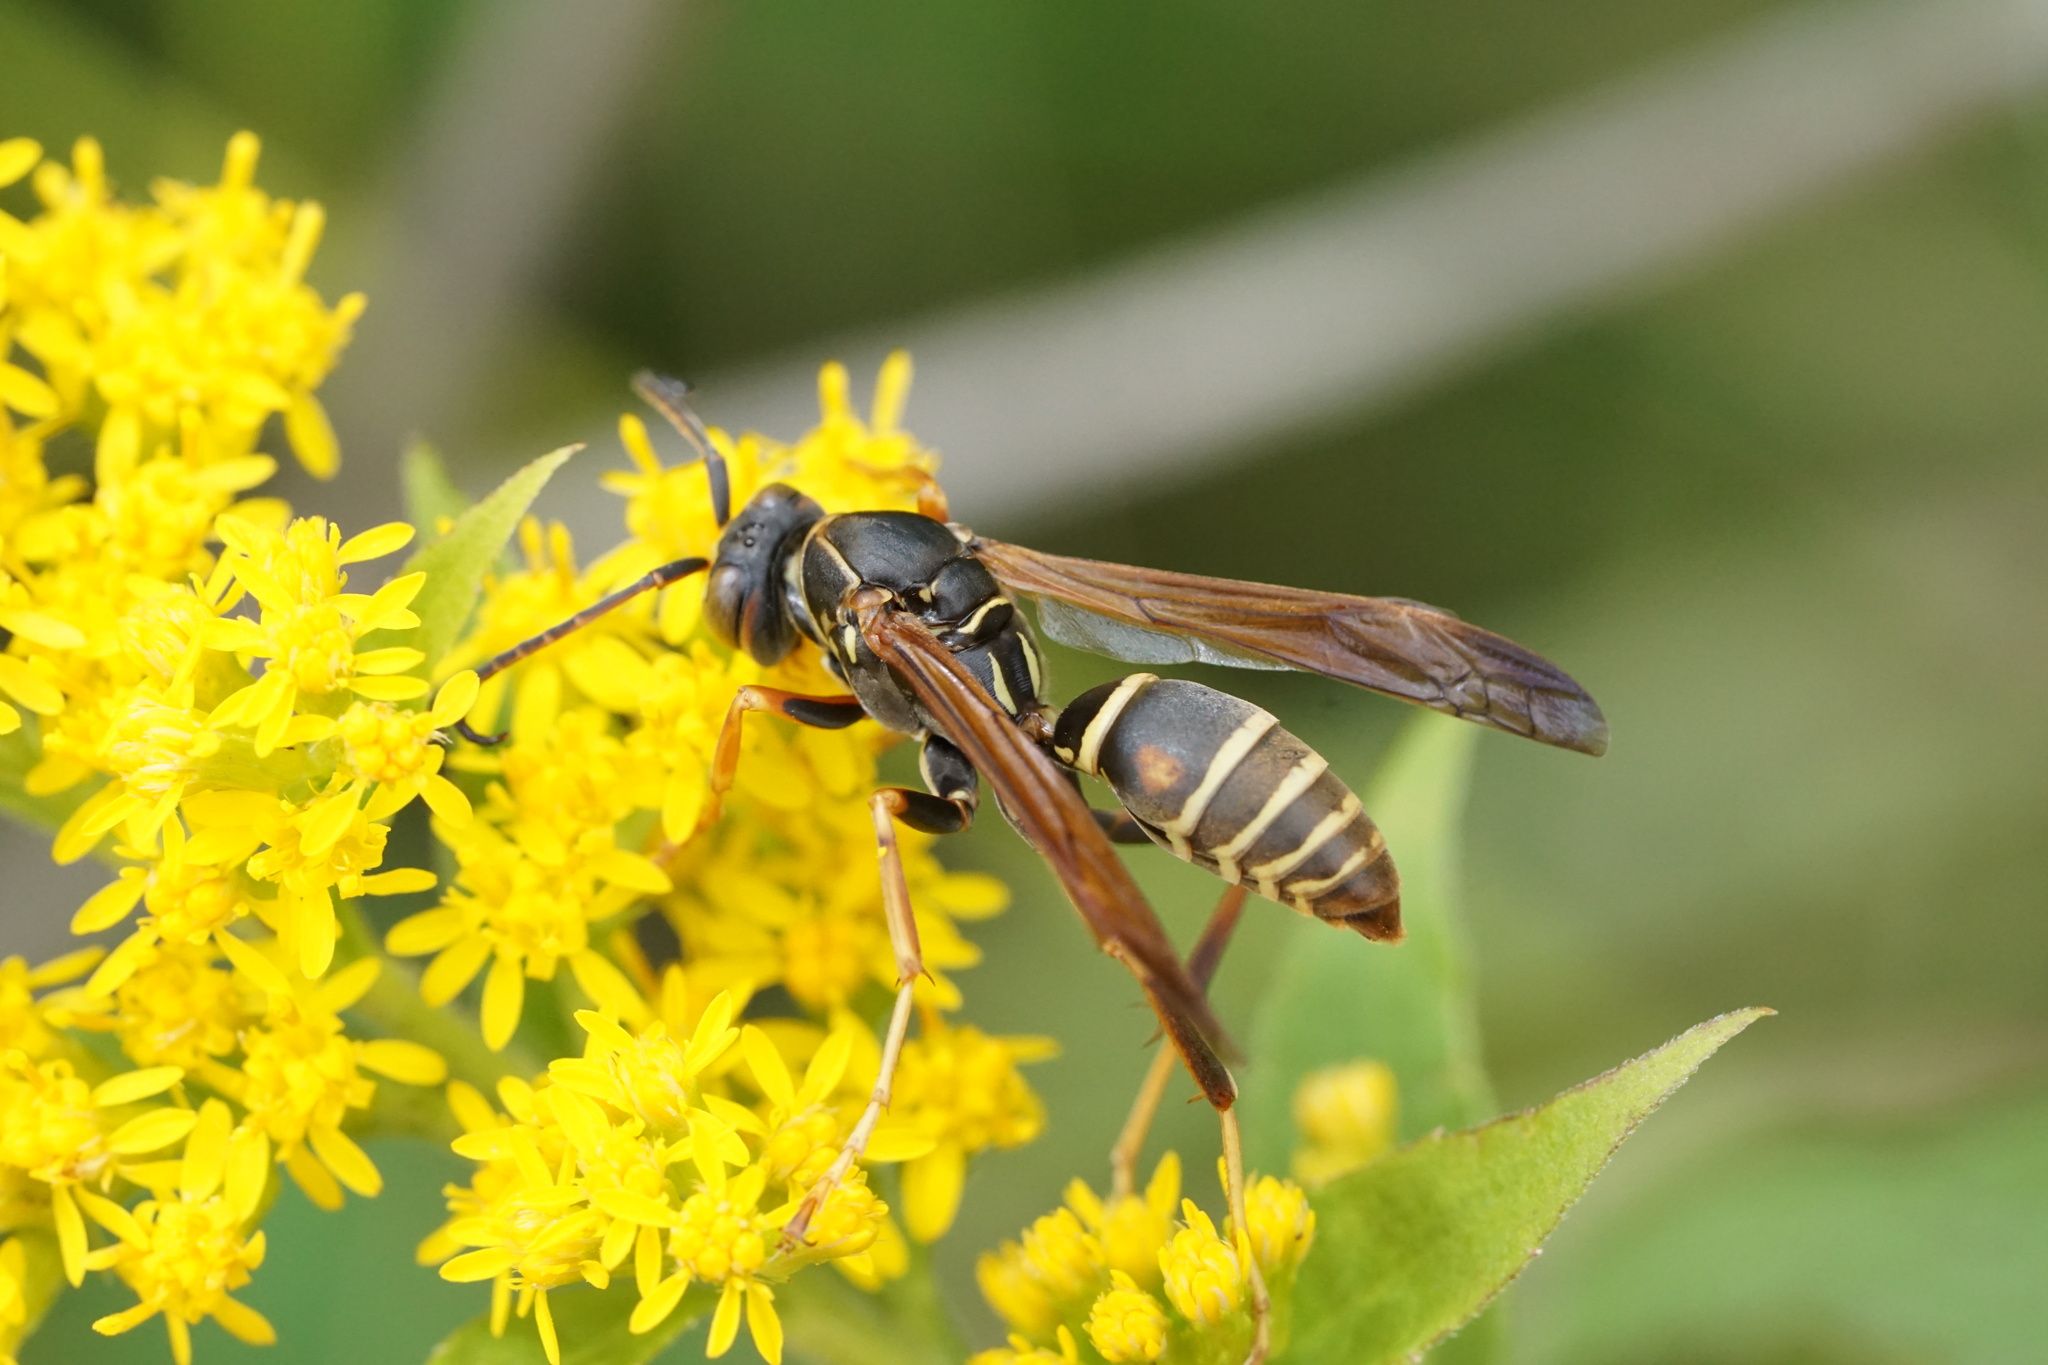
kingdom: Animalia
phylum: Arthropoda
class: Insecta
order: Hymenoptera
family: Eumenidae
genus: Polistes
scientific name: Polistes fuscatus
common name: Dark paper wasp
